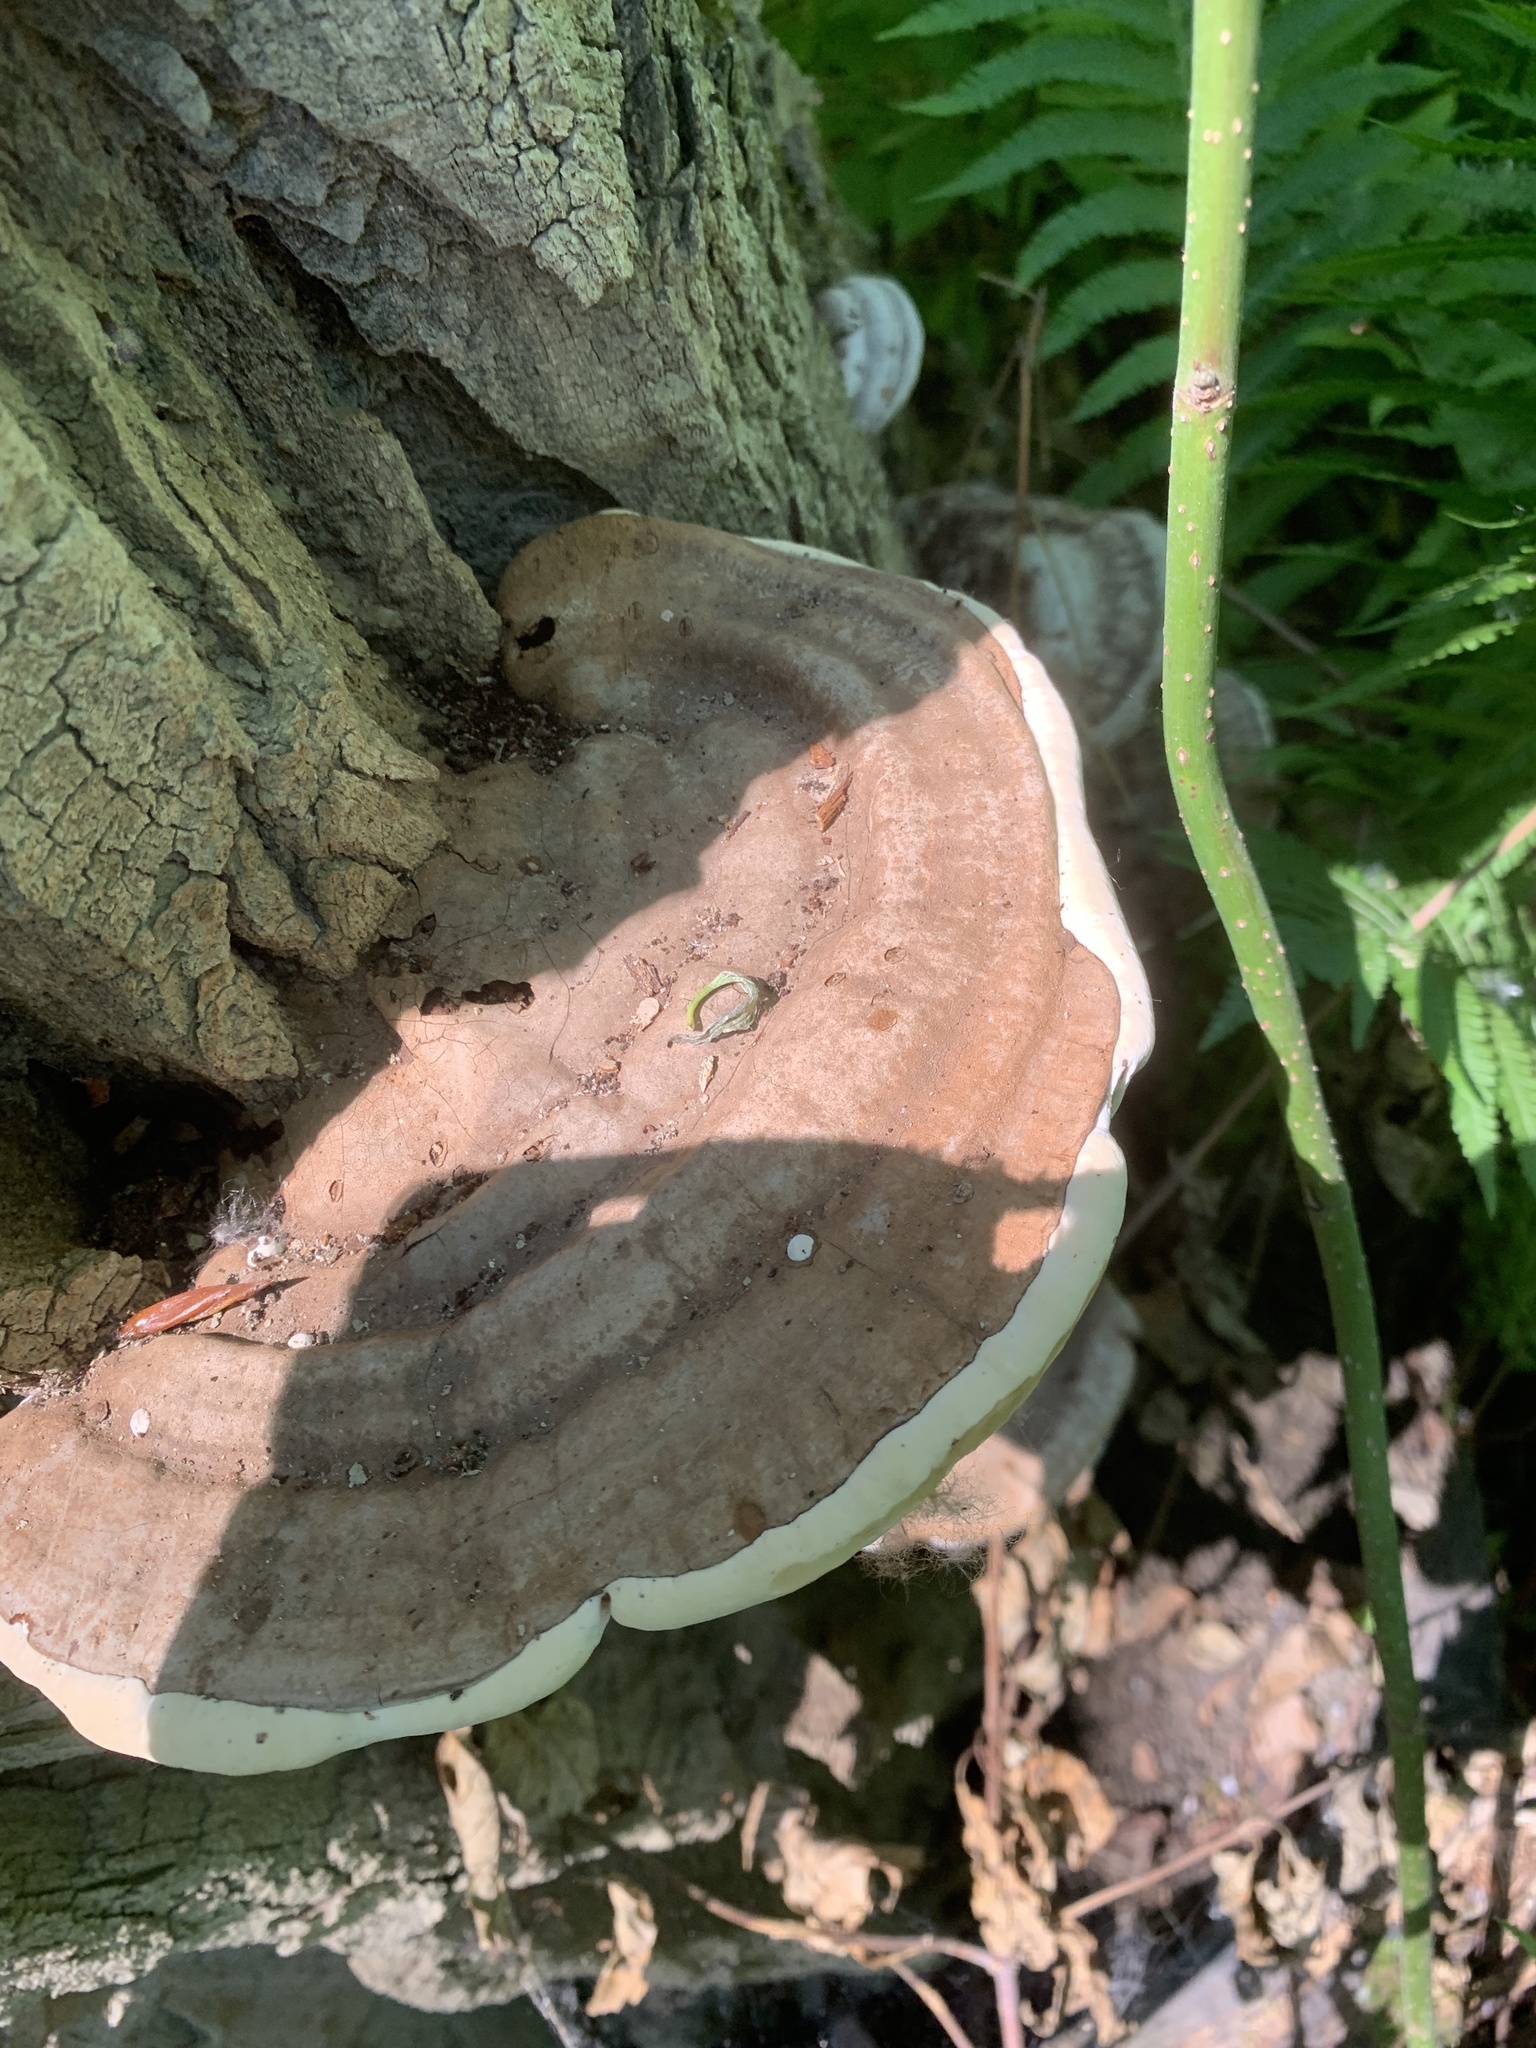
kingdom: Fungi
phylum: Basidiomycota
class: Agaricomycetes
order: Polyporales
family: Polyporaceae
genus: Ganoderma
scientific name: Ganoderma applanatum
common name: Artist's bracket
